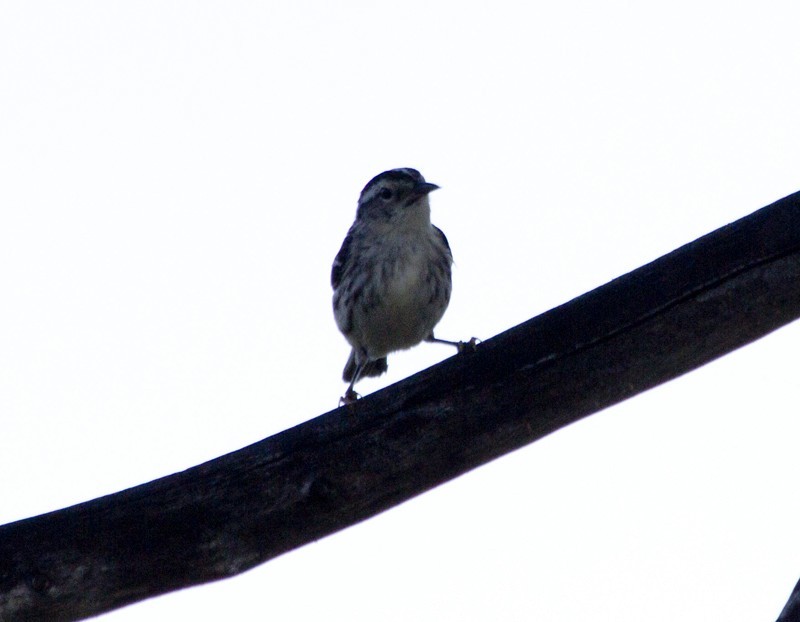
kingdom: Animalia
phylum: Chordata
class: Aves
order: Passeriformes
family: Parulidae
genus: Mniotilta
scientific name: Mniotilta varia
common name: Black-and-white warbler
